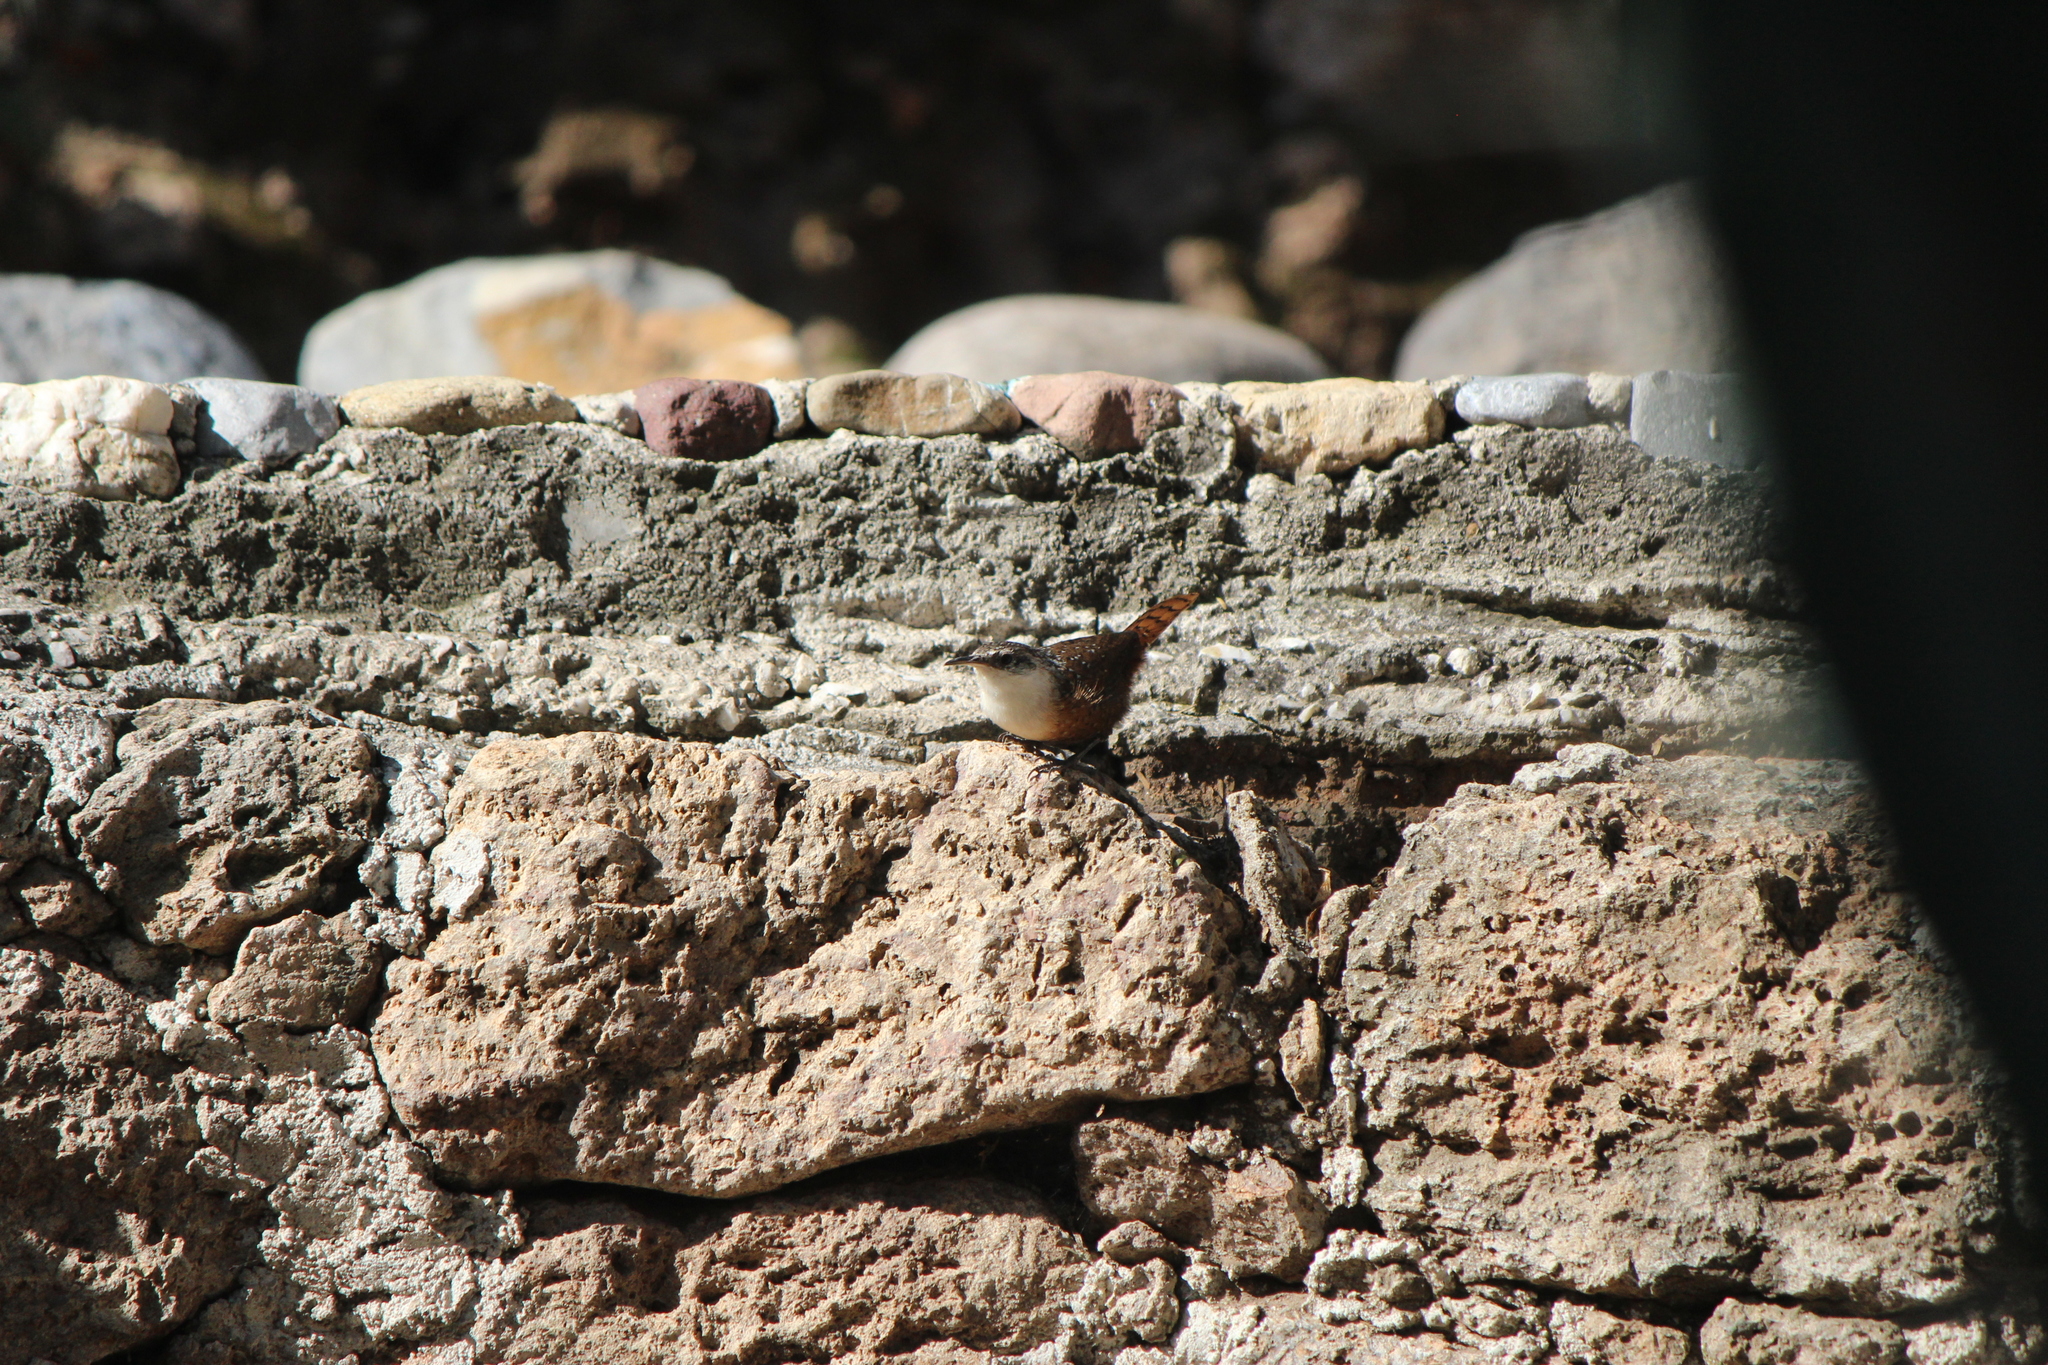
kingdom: Animalia
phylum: Chordata
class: Aves
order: Passeriformes
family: Troglodytidae
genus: Catherpes
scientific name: Catherpes mexicanus
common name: Canyon wren
